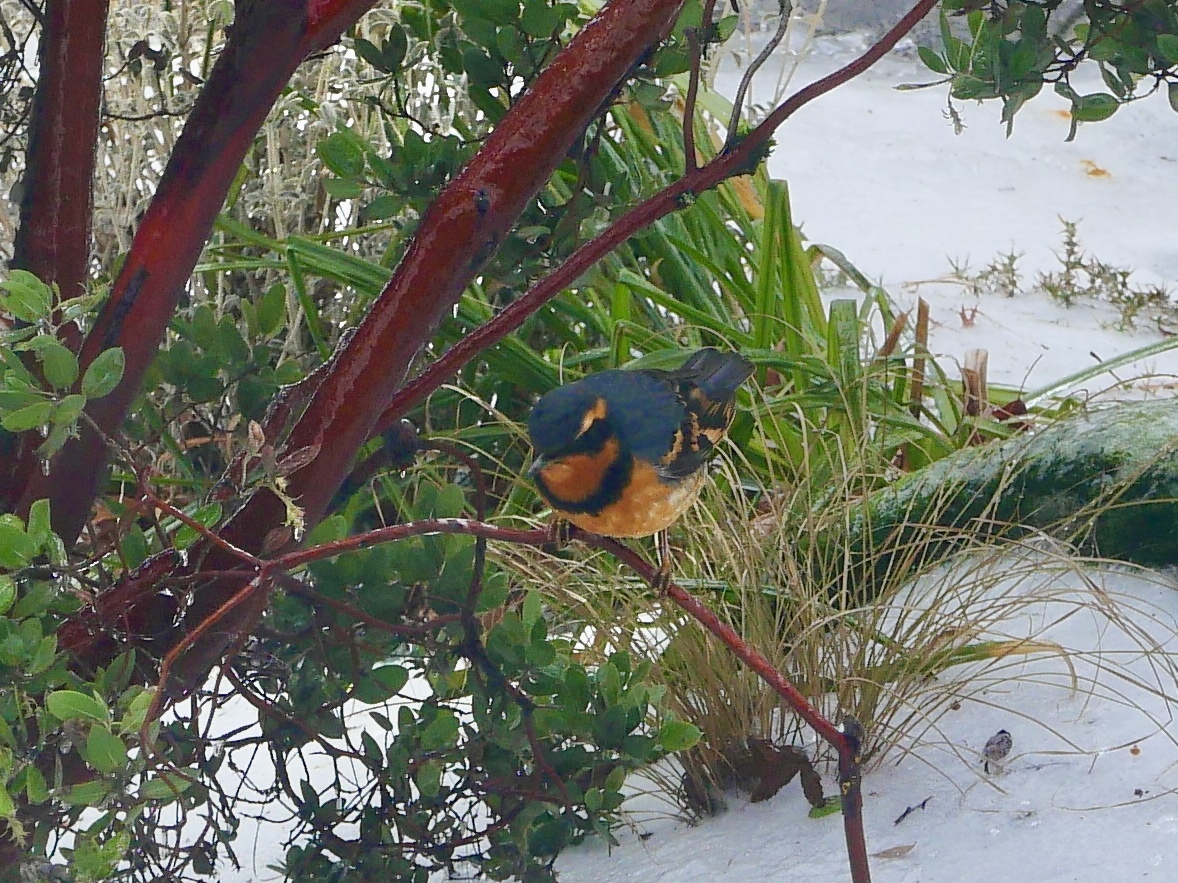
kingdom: Animalia
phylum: Chordata
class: Aves
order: Passeriformes
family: Turdidae
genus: Ixoreus
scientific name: Ixoreus naevius
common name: Varied thrush
